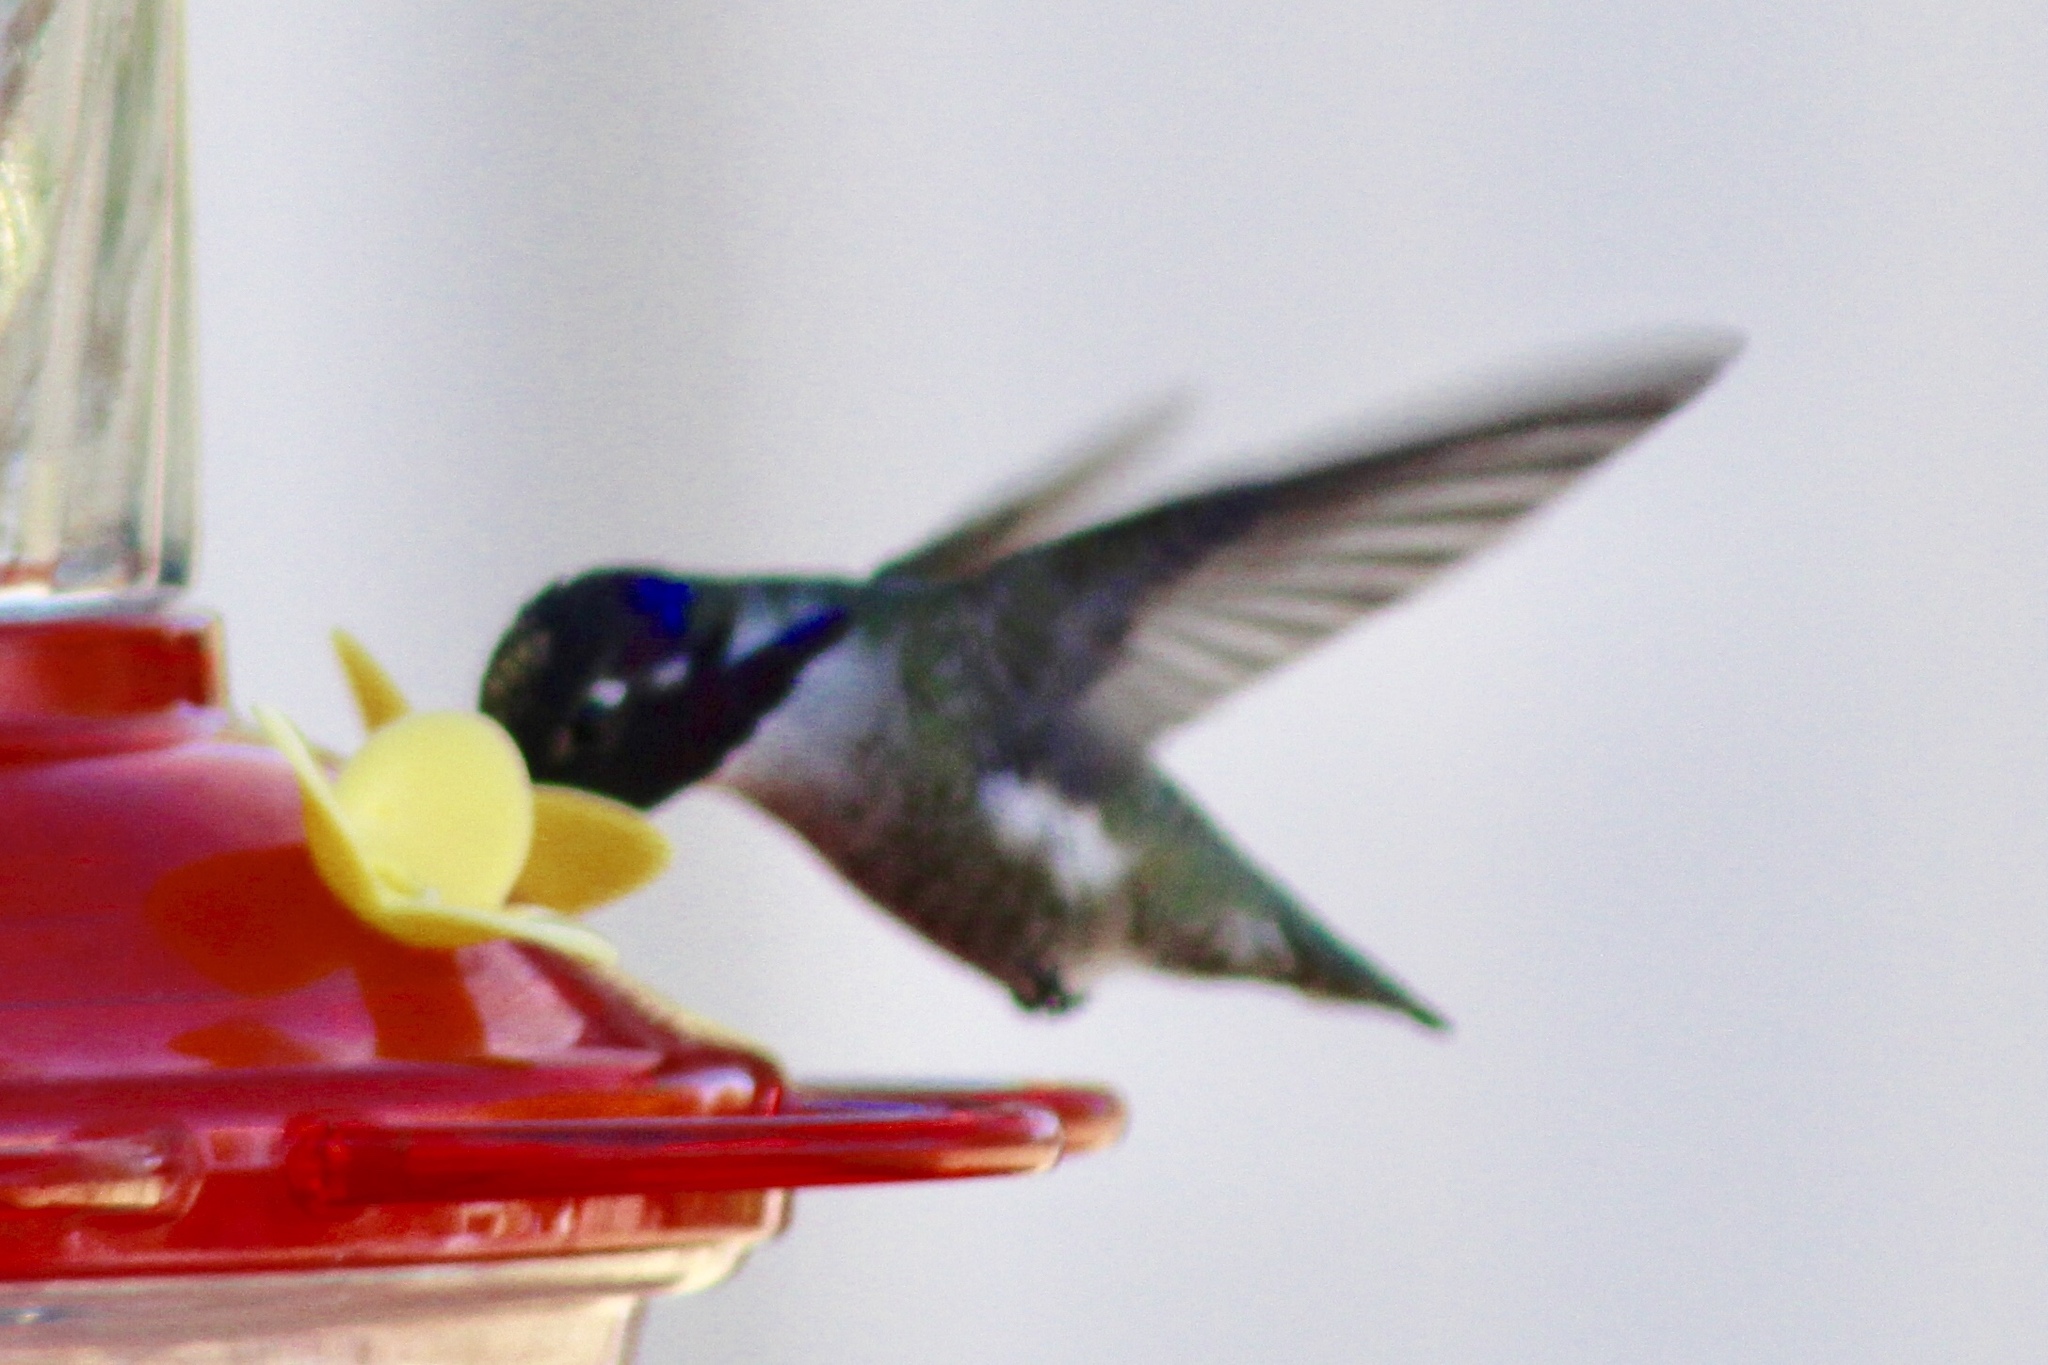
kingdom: Animalia
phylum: Chordata
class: Aves
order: Apodiformes
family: Trochilidae
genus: Calypte
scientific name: Calypte costae
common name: Costa's hummingbird
